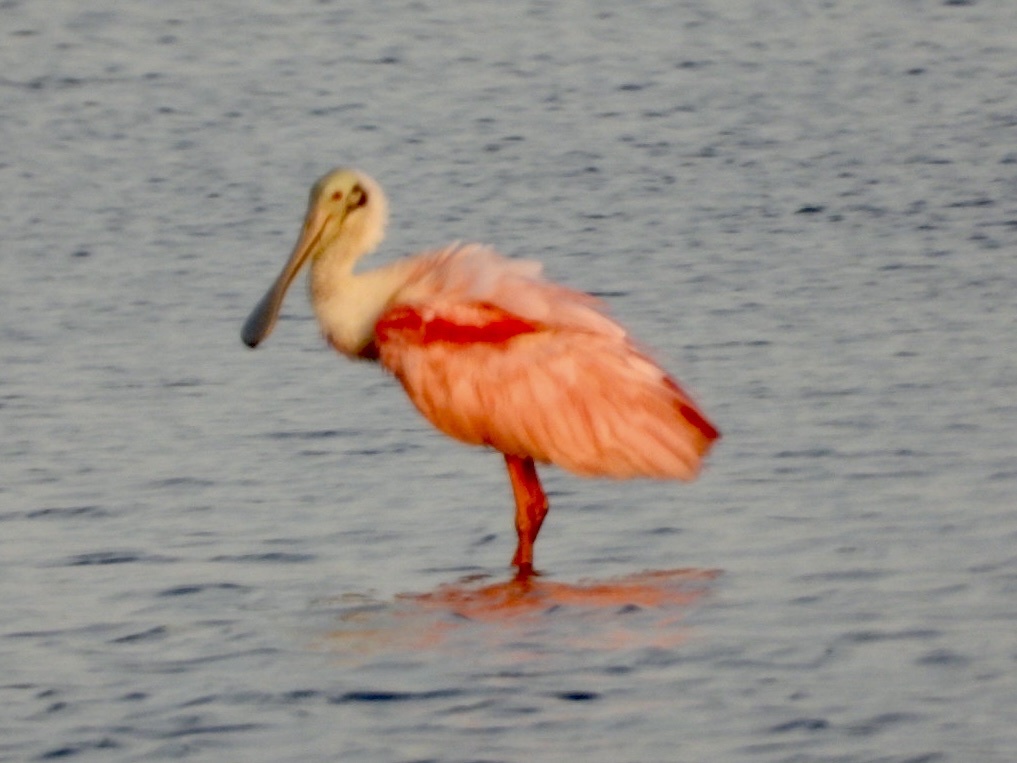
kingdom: Animalia
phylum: Chordata
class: Aves
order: Pelecaniformes
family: Threskiornithidae
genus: Platalea
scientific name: Platalea ajaja
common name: Roseate spoonbill
